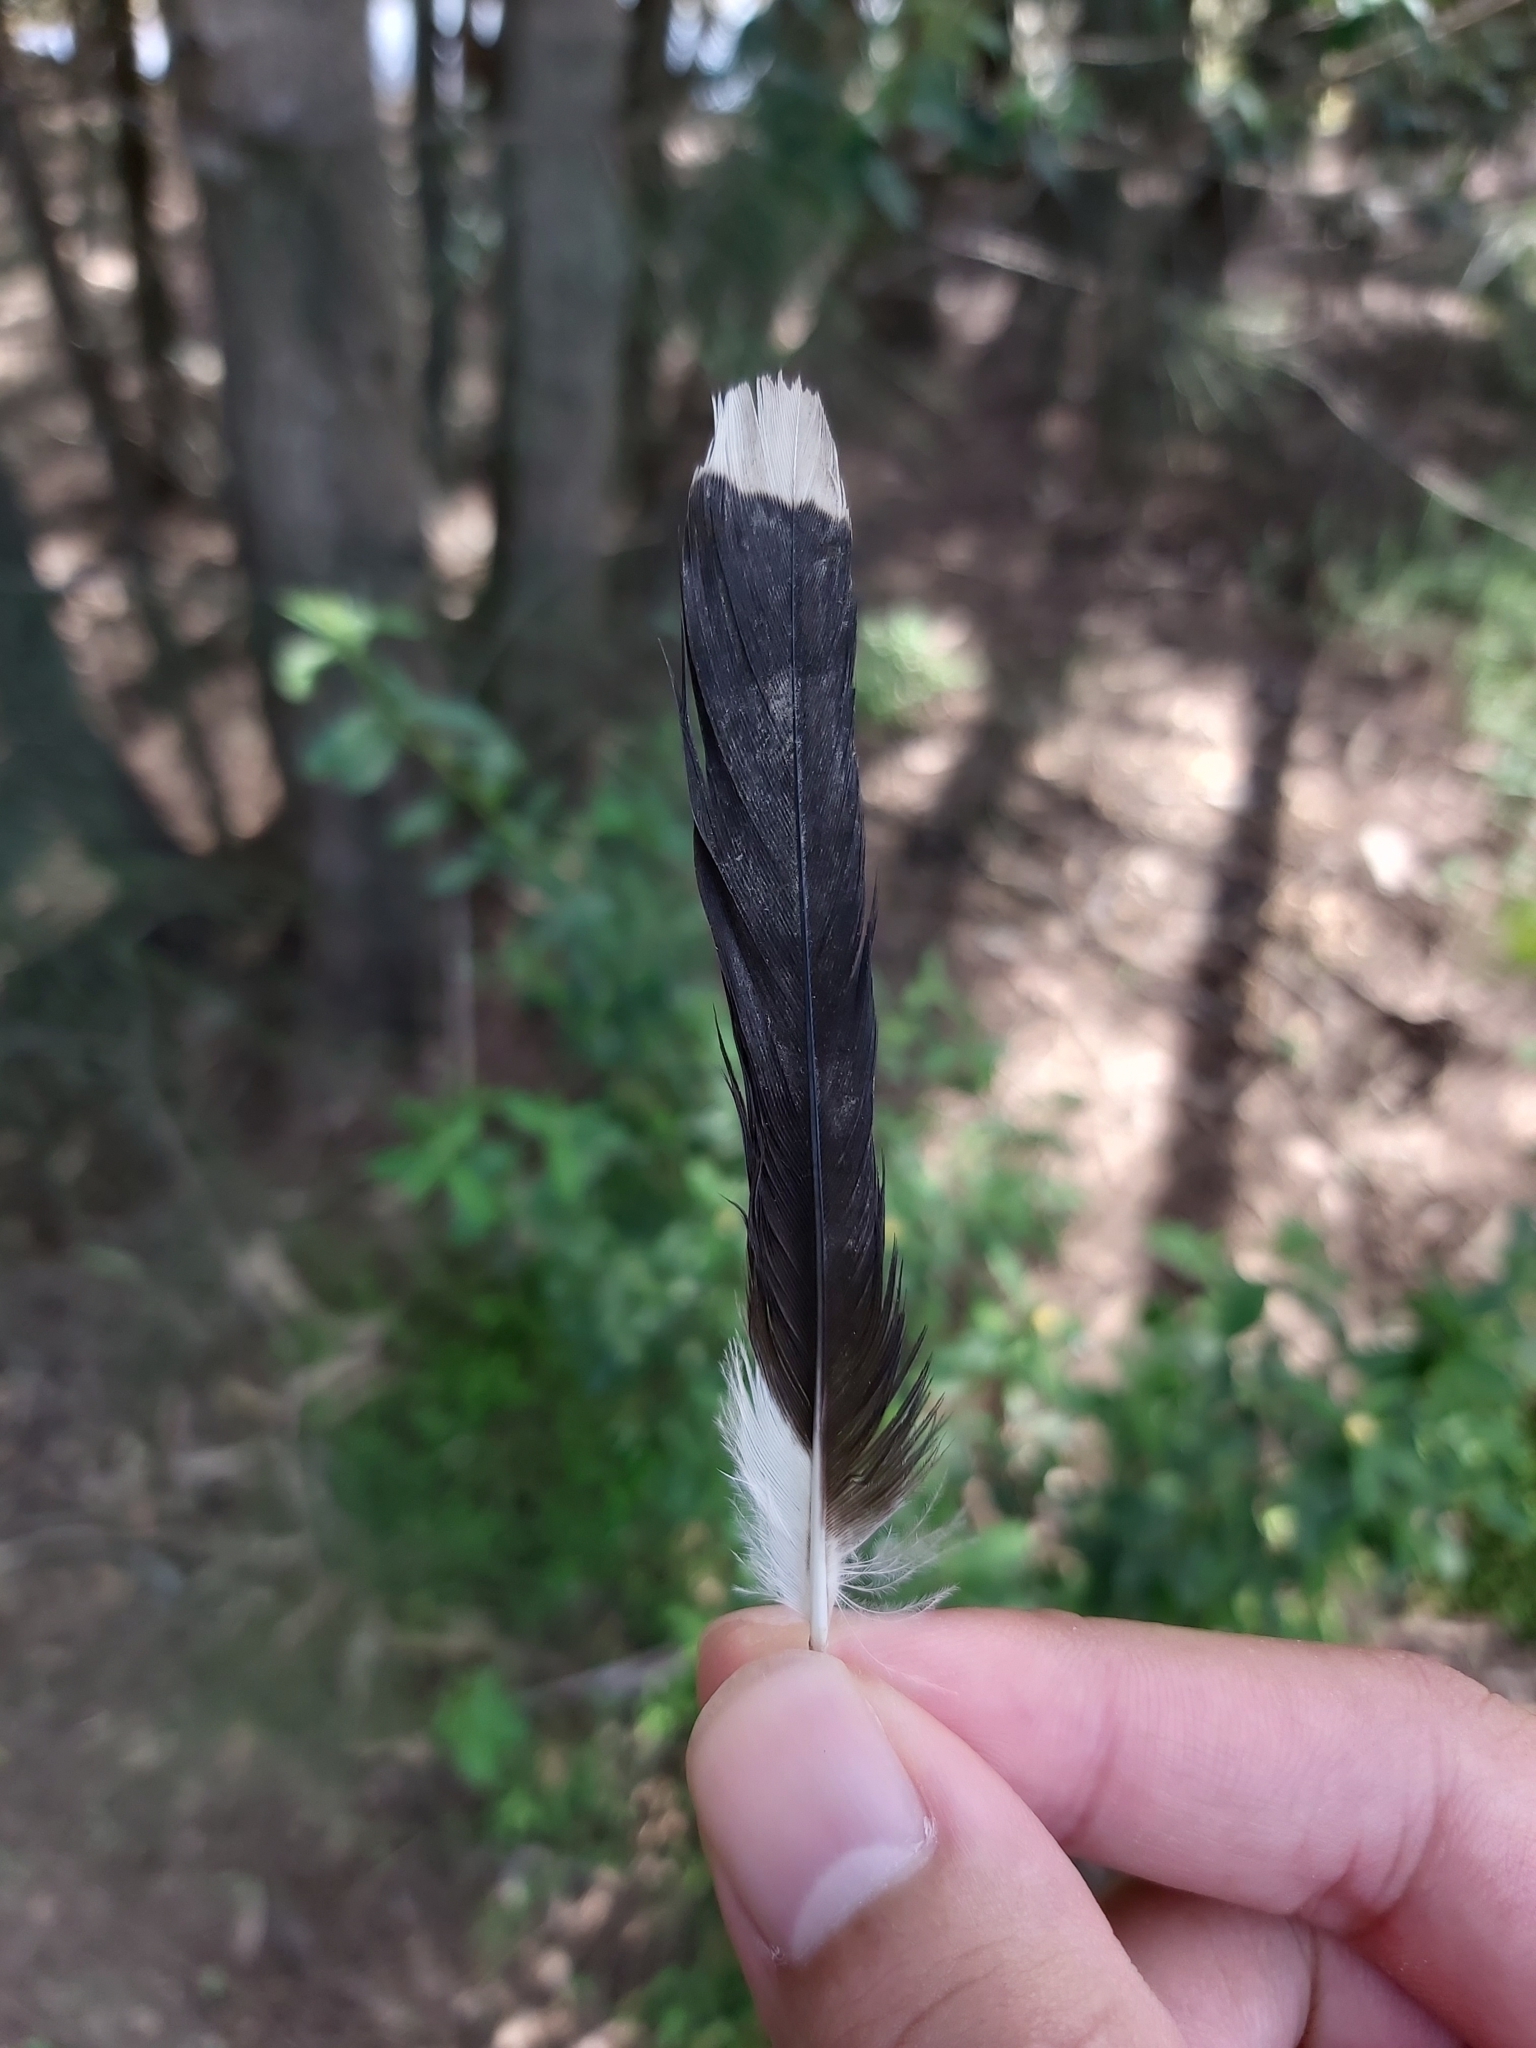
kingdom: Animalia
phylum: Chordata
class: Aves
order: Passeriformes
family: Sturnidae
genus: Acridotheres
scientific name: Acridotheres tristis
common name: Common myna
